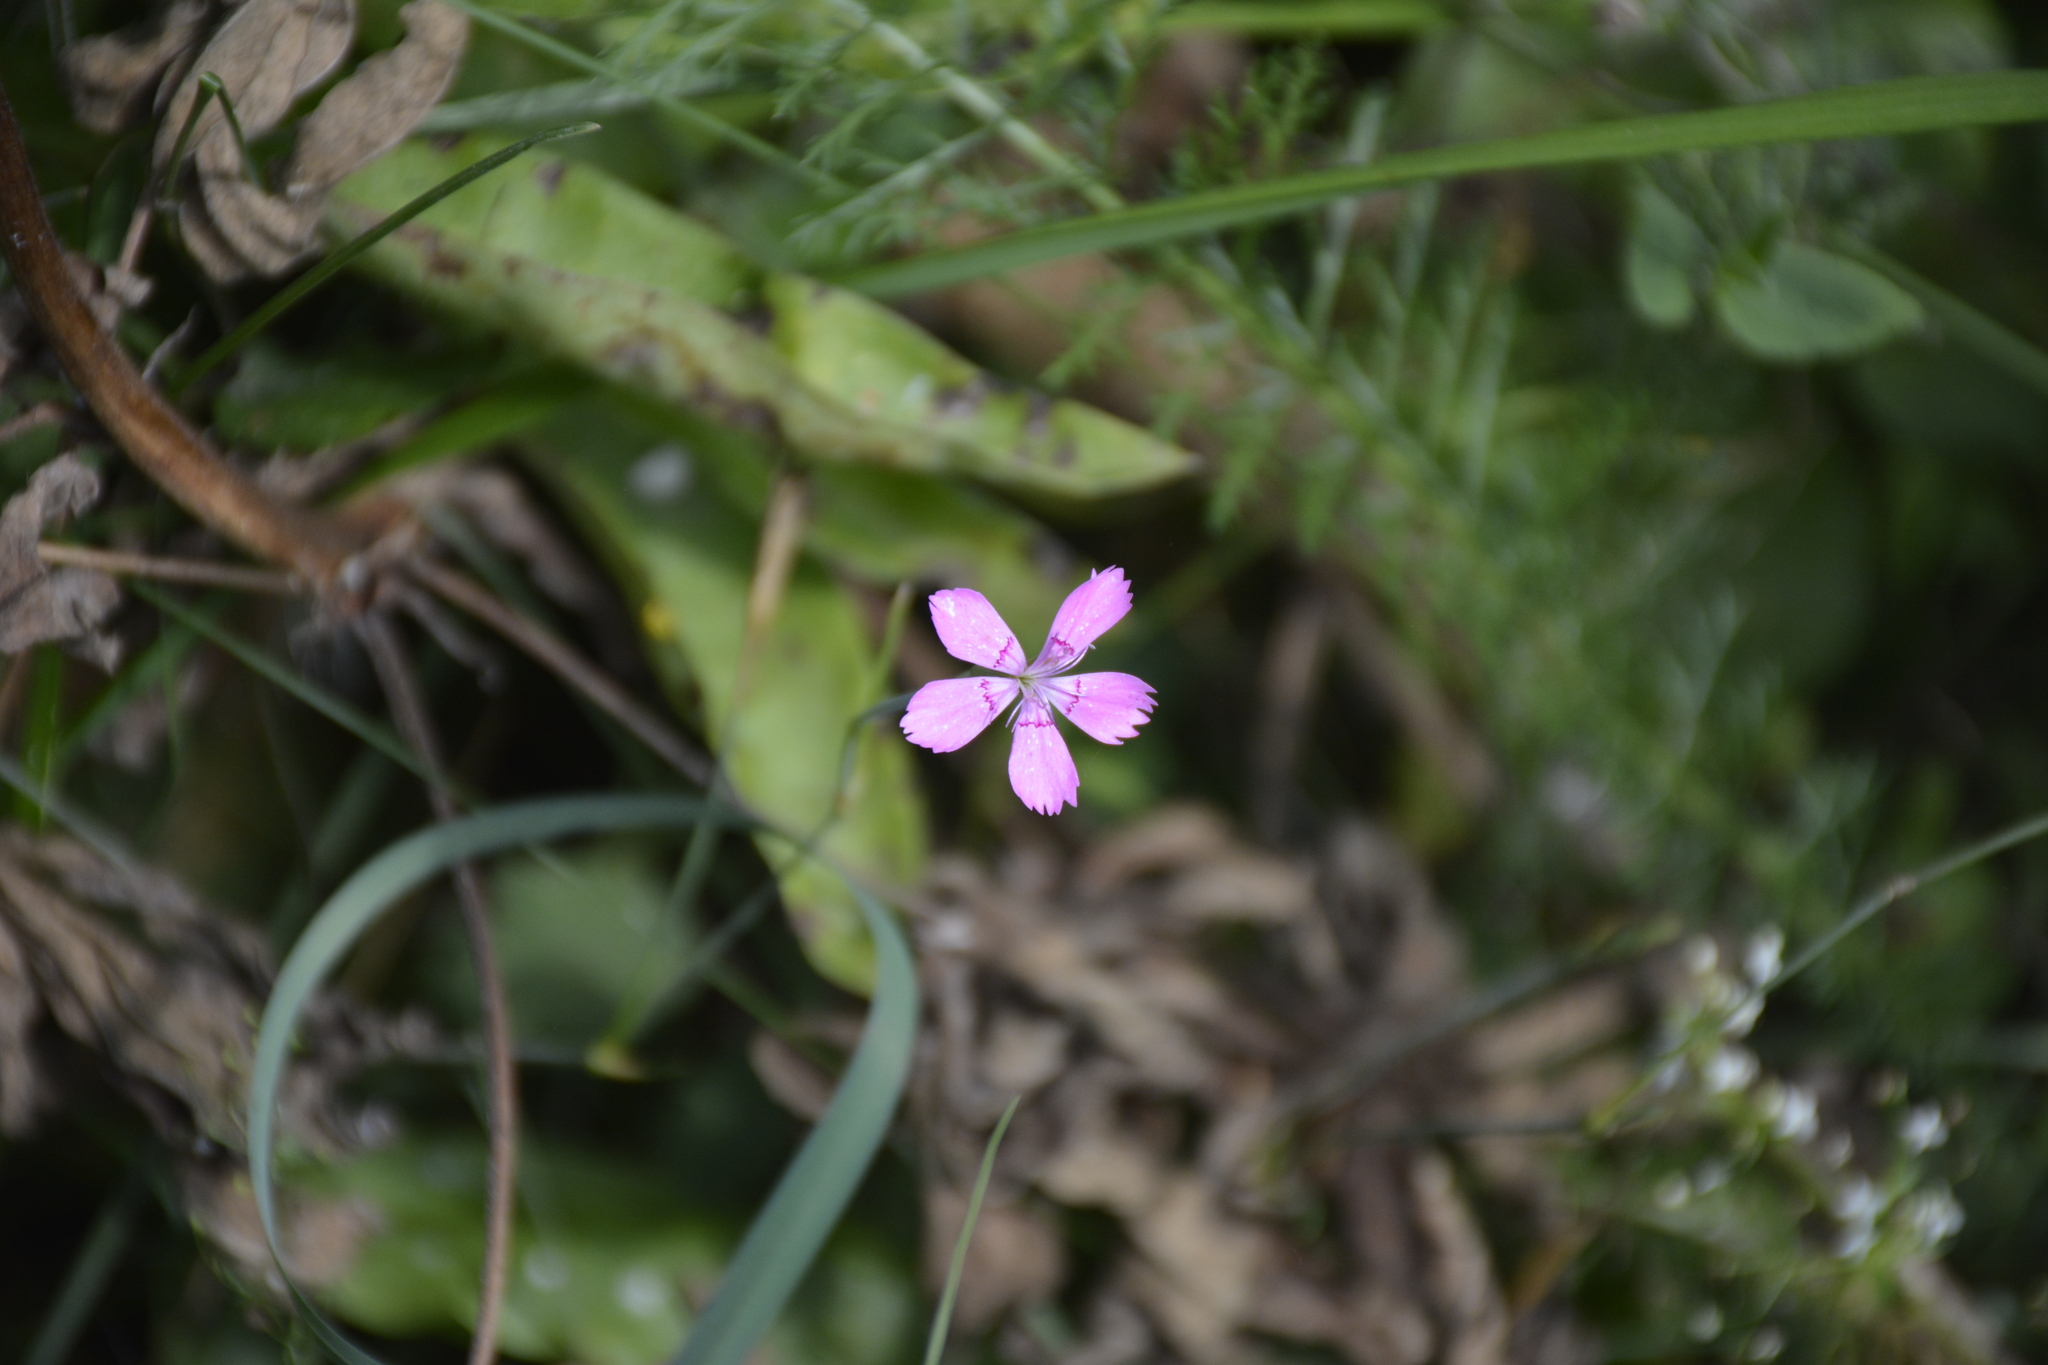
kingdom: Plantae
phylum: Tracheophyta
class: Magnoliopsida
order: Caryophyllales
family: Caryophyllaceae
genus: Dianthus
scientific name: Dianthus deltoides
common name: Maiden pink
